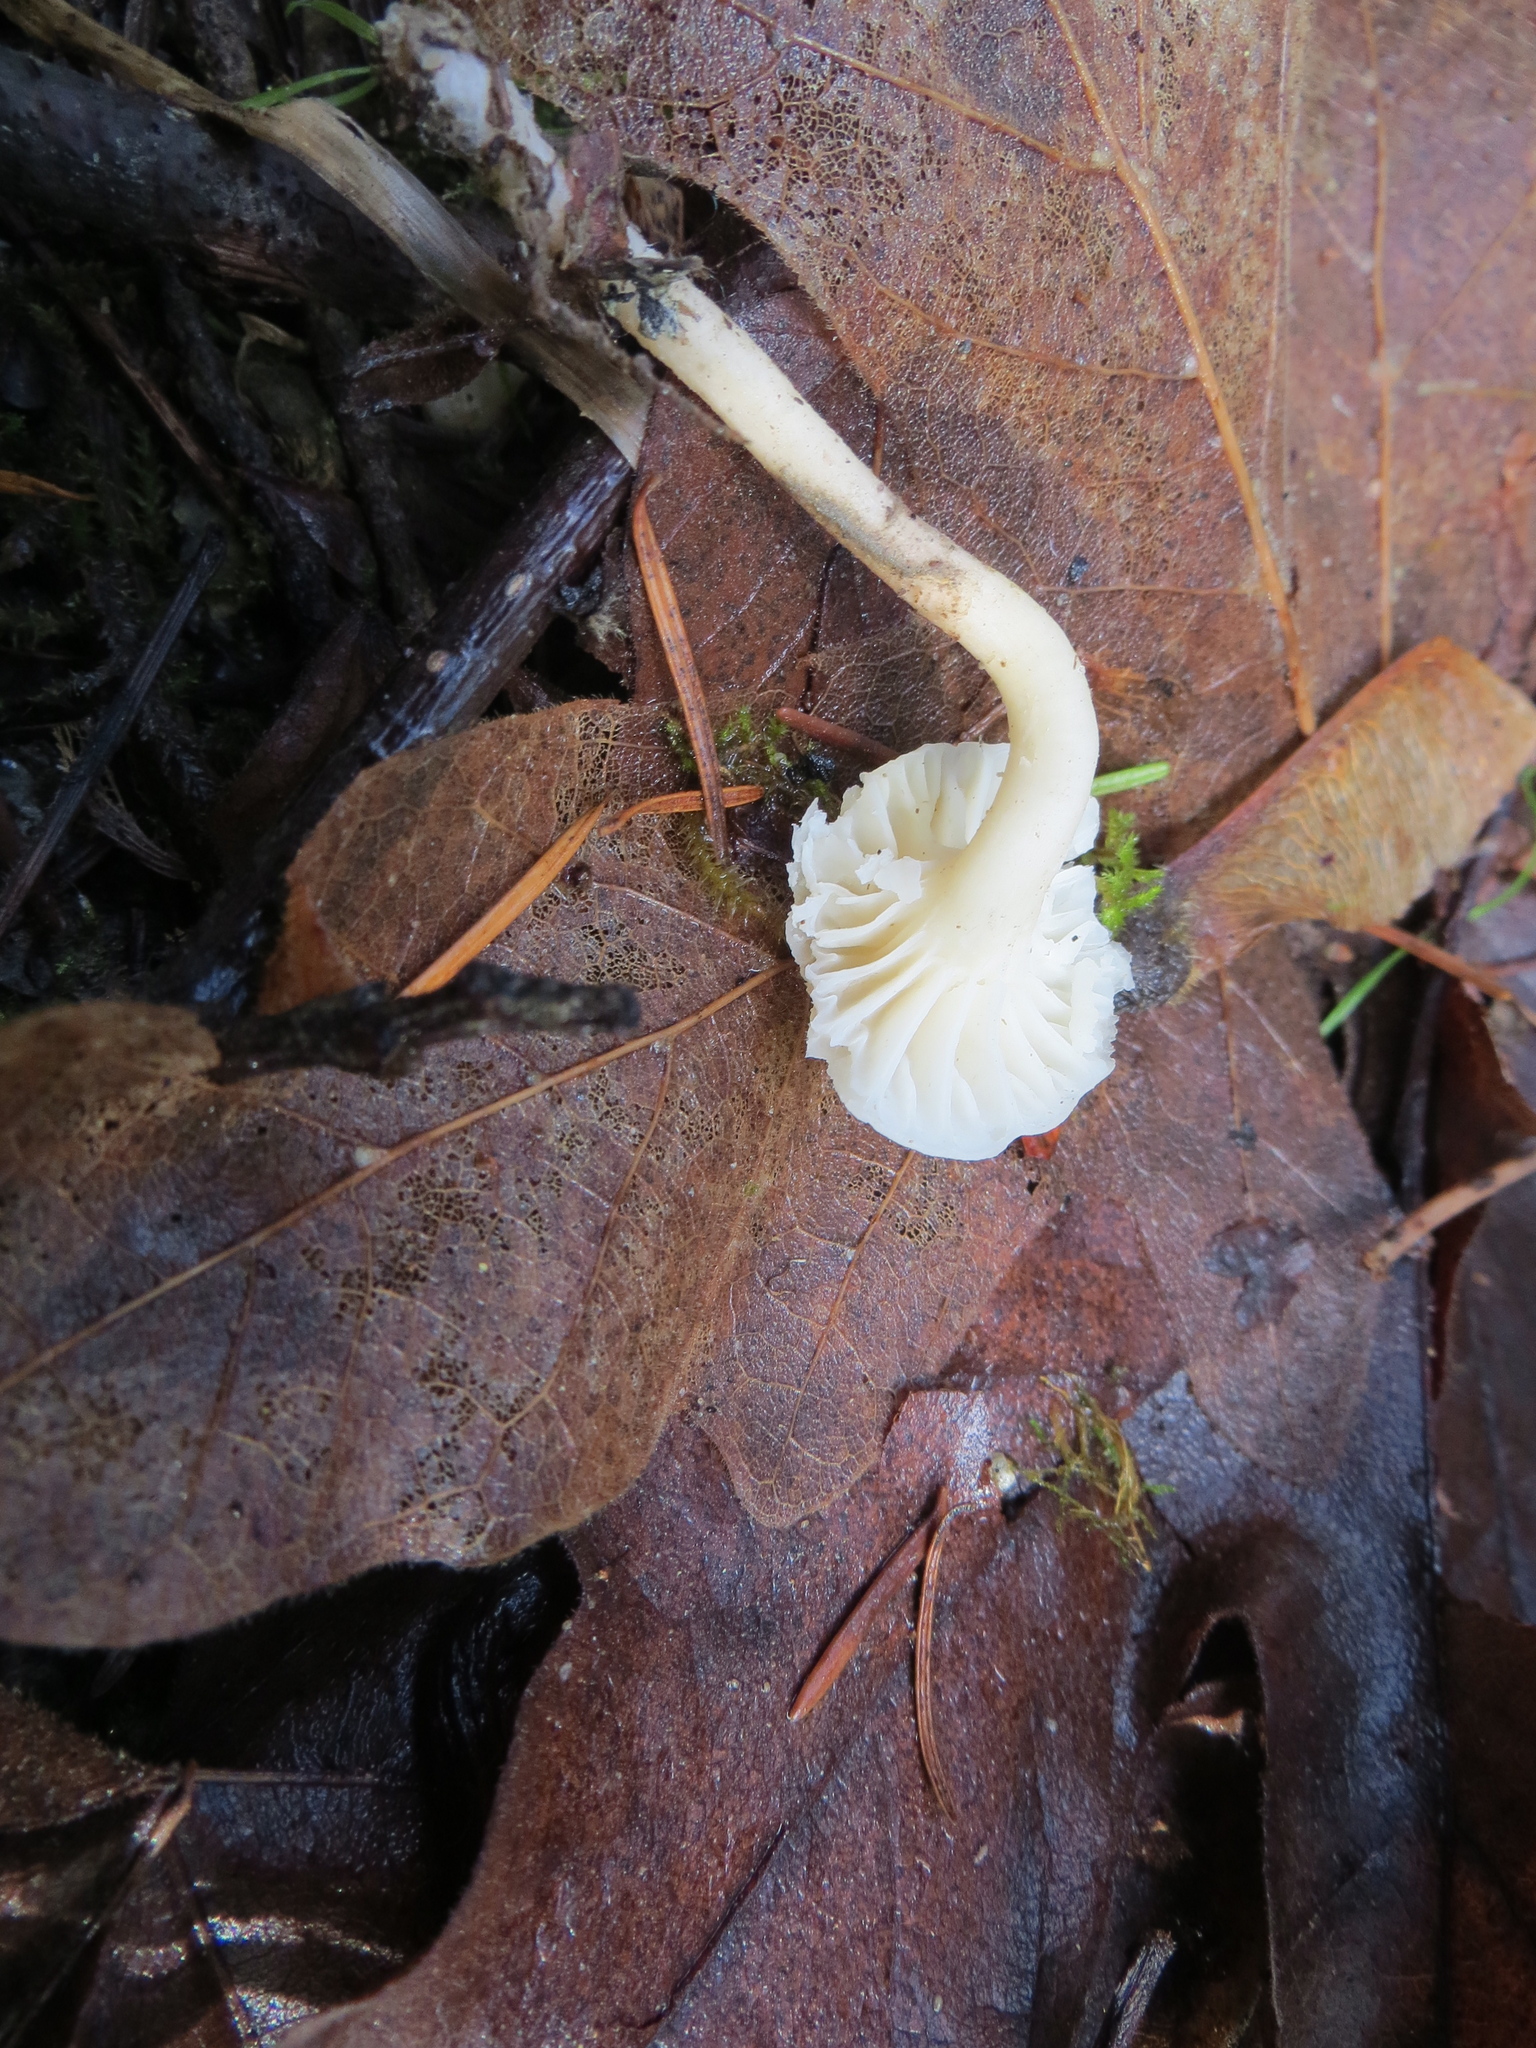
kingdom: Fungi
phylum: Basidiomycota
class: Agaricomycetes
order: Agaricales
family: Hygrophoraceae
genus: Cuphophyllus
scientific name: Cuphophyllus russocoriaceus
